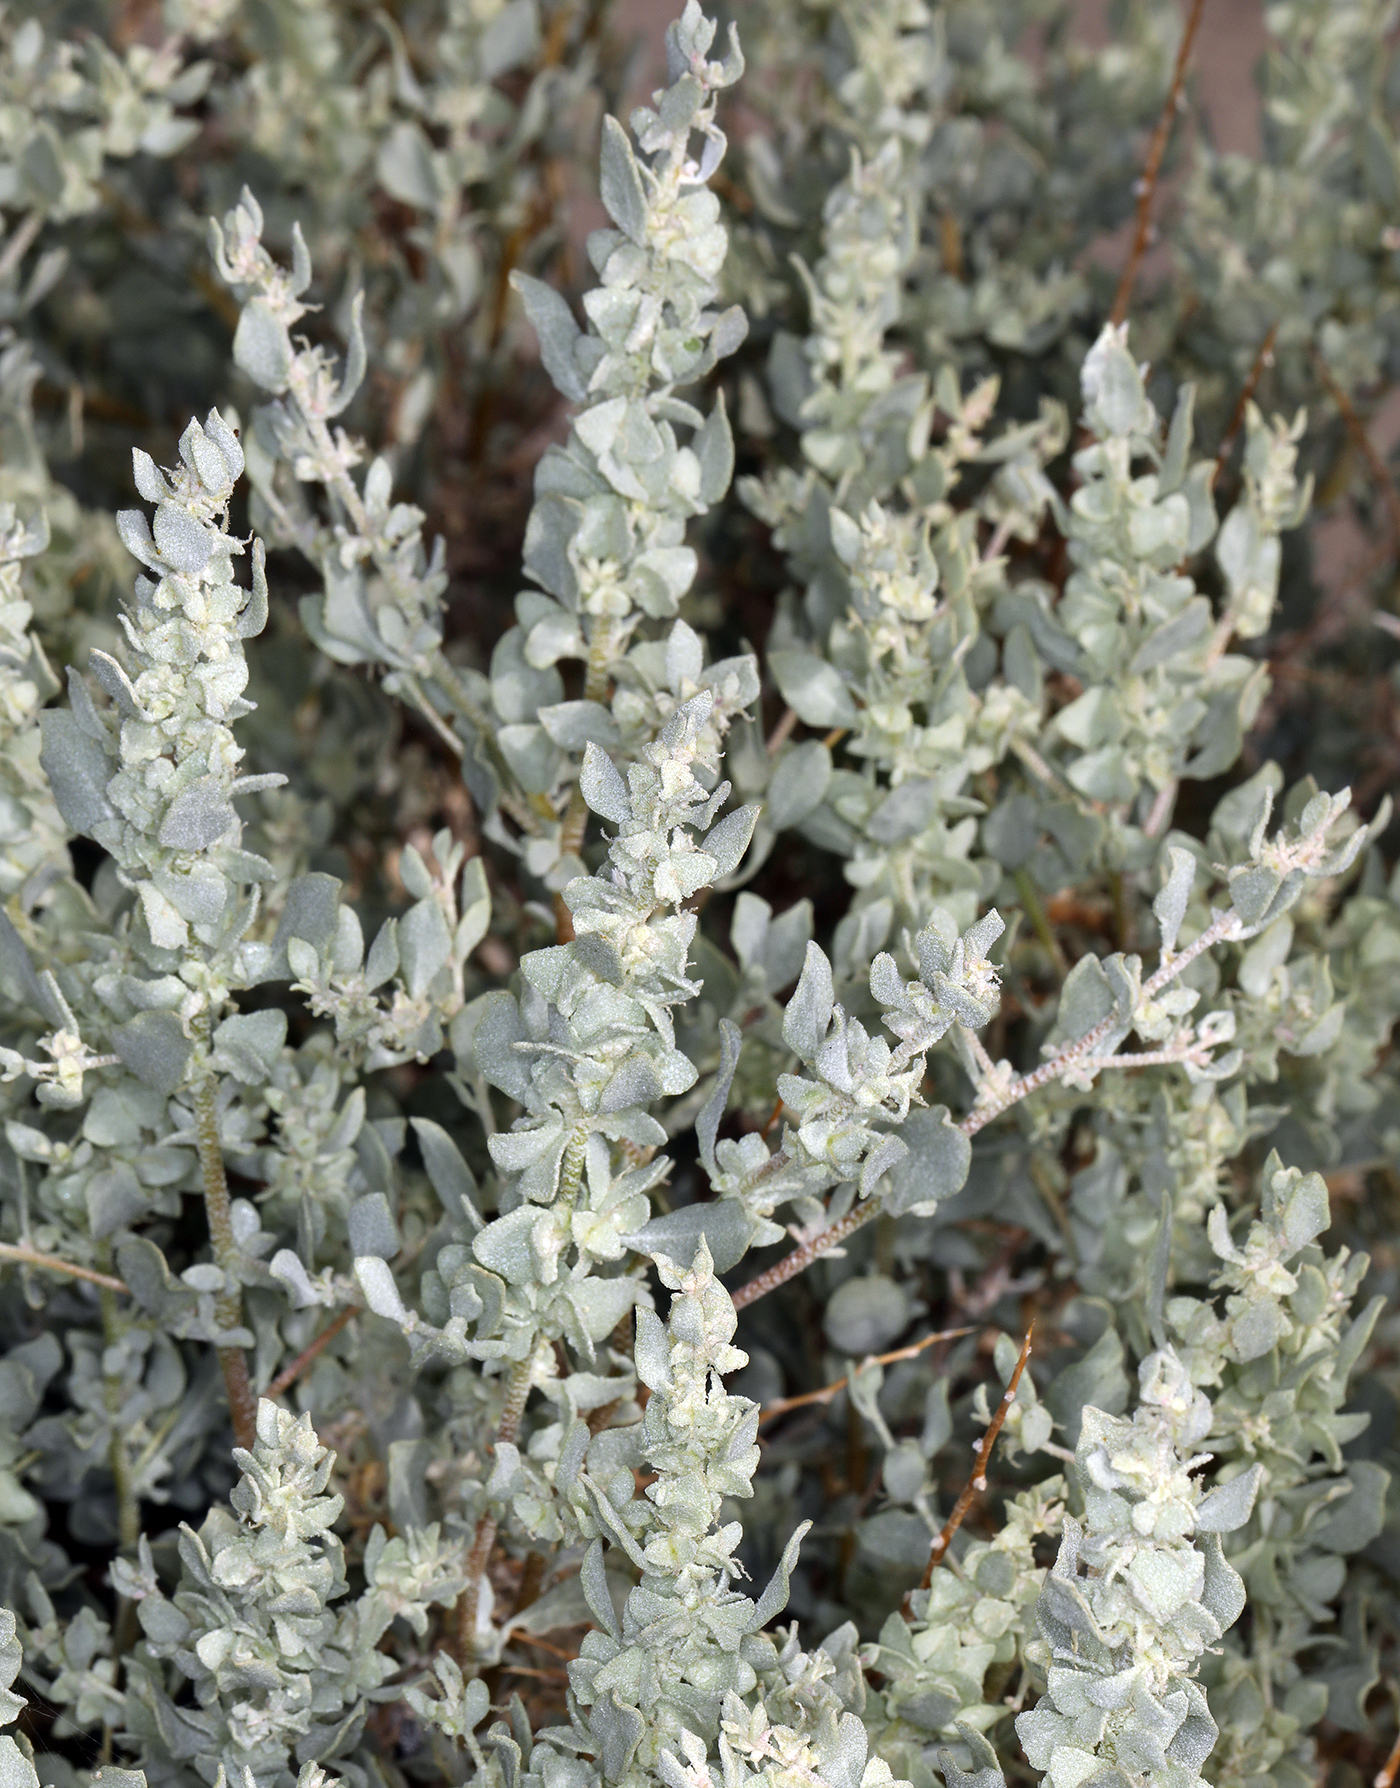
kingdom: Plantae
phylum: Tracheophyta
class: Magnoliopsida
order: Caryophyllales
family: Amaranthaceae
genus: Atriplex
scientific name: Atriplex confertifolia
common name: Shadscale
